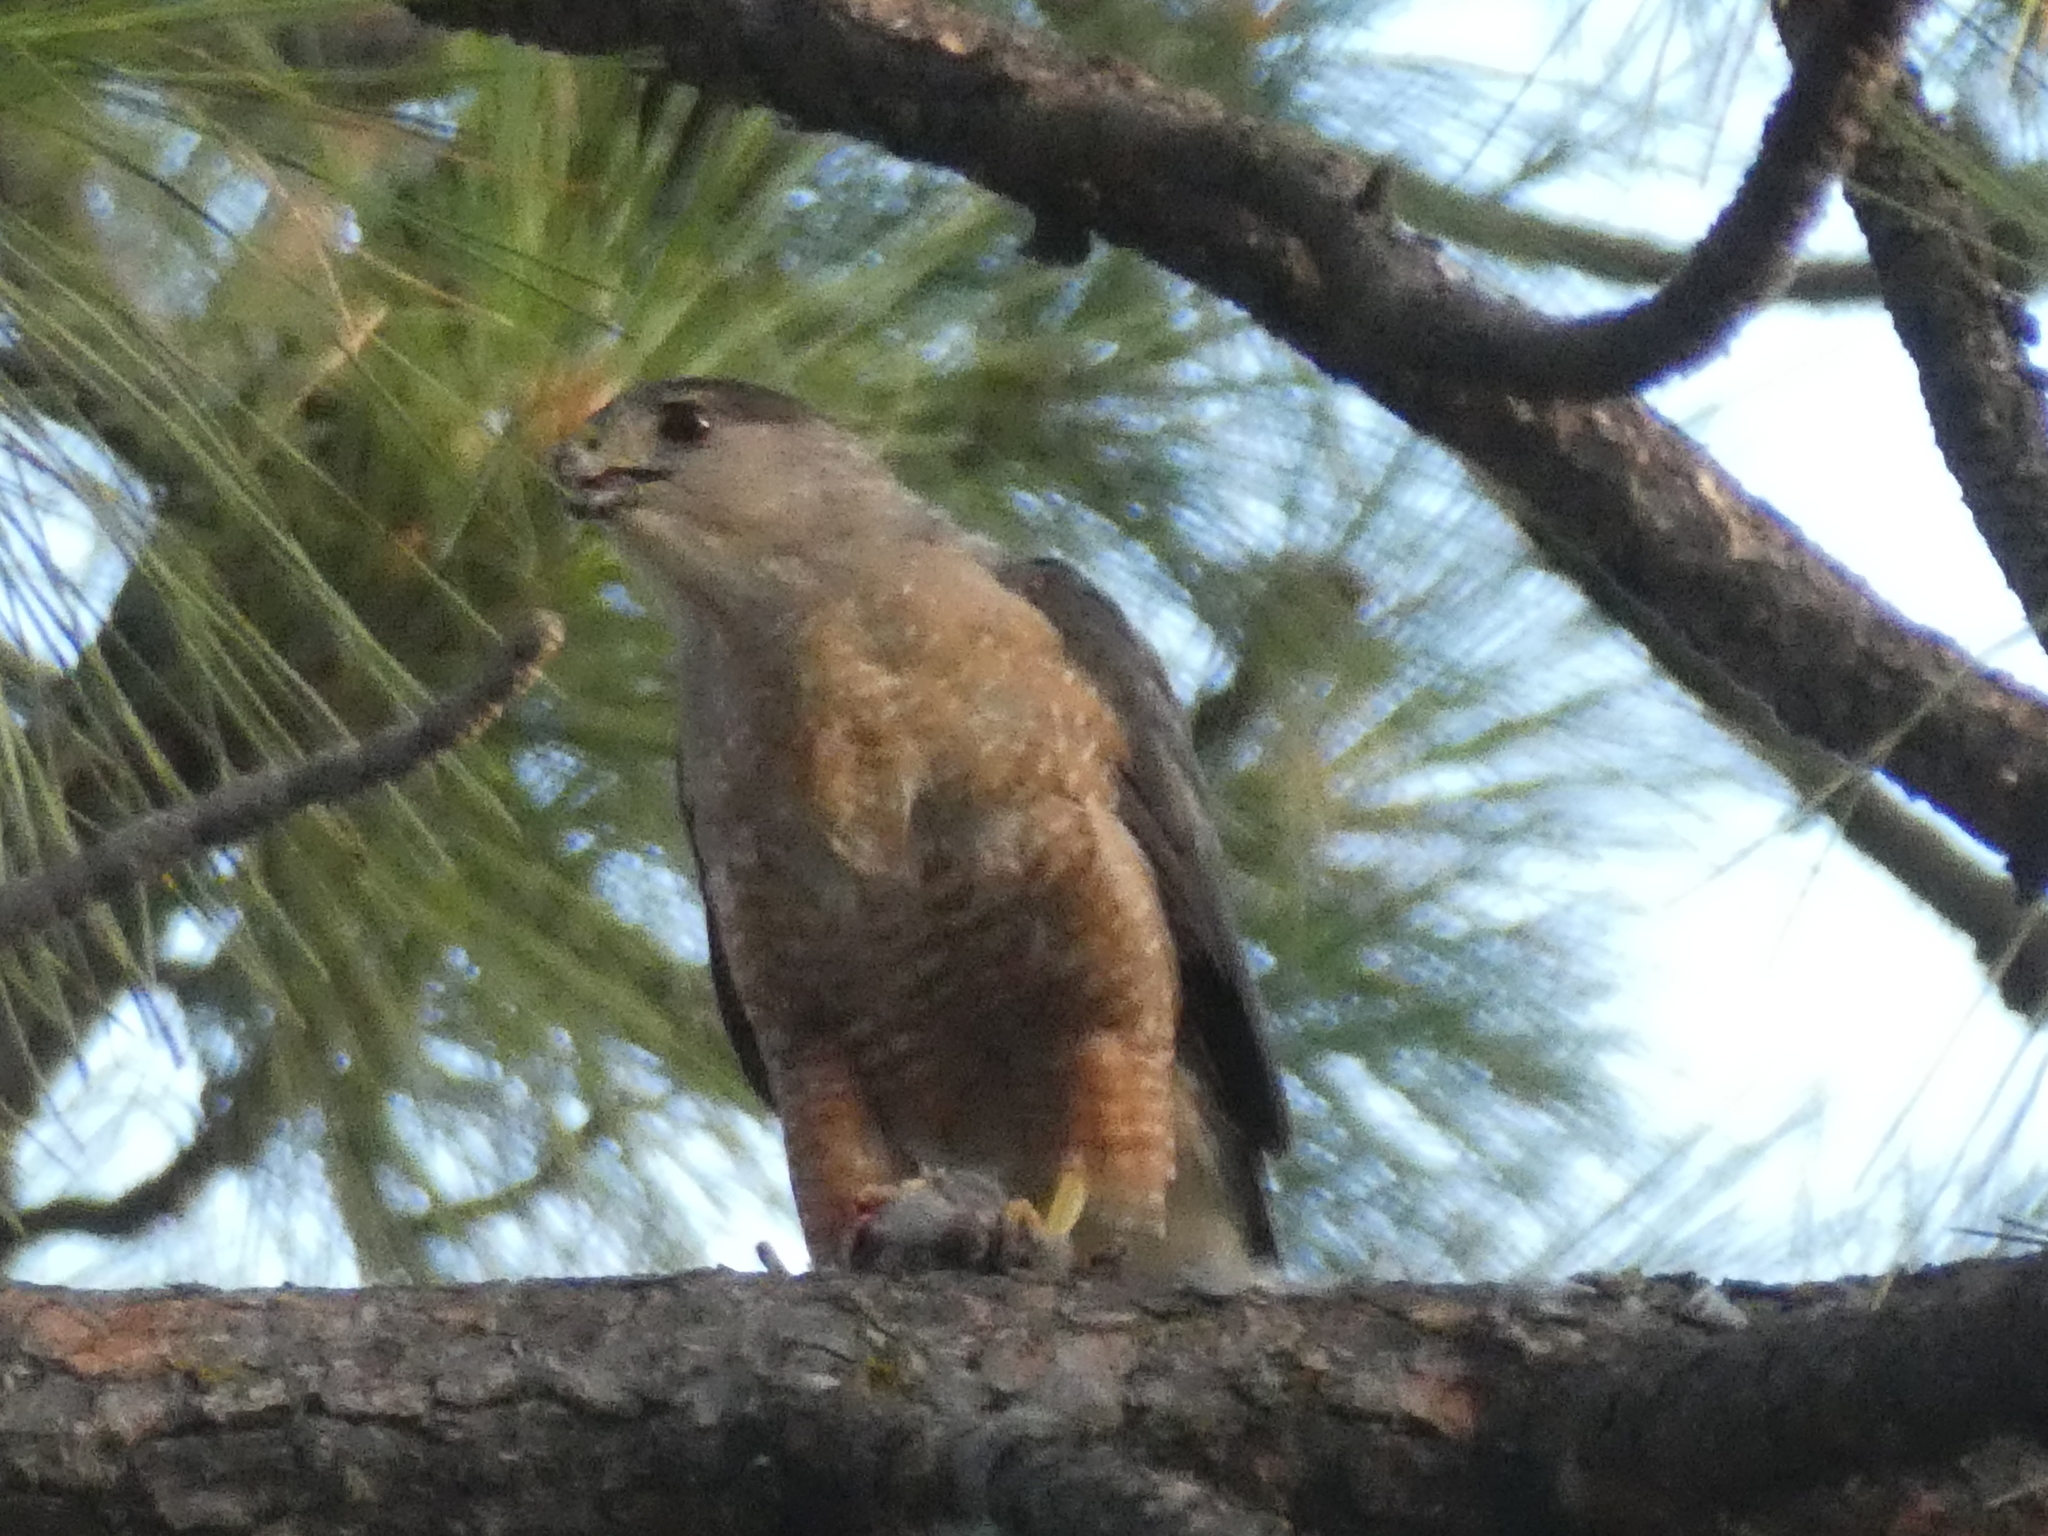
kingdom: Animalia
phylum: Chordata
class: Aves
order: Accipitriformes
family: Accipitridae
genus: Accipiter
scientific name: Accipiter cooperii
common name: Cooper's hawk
